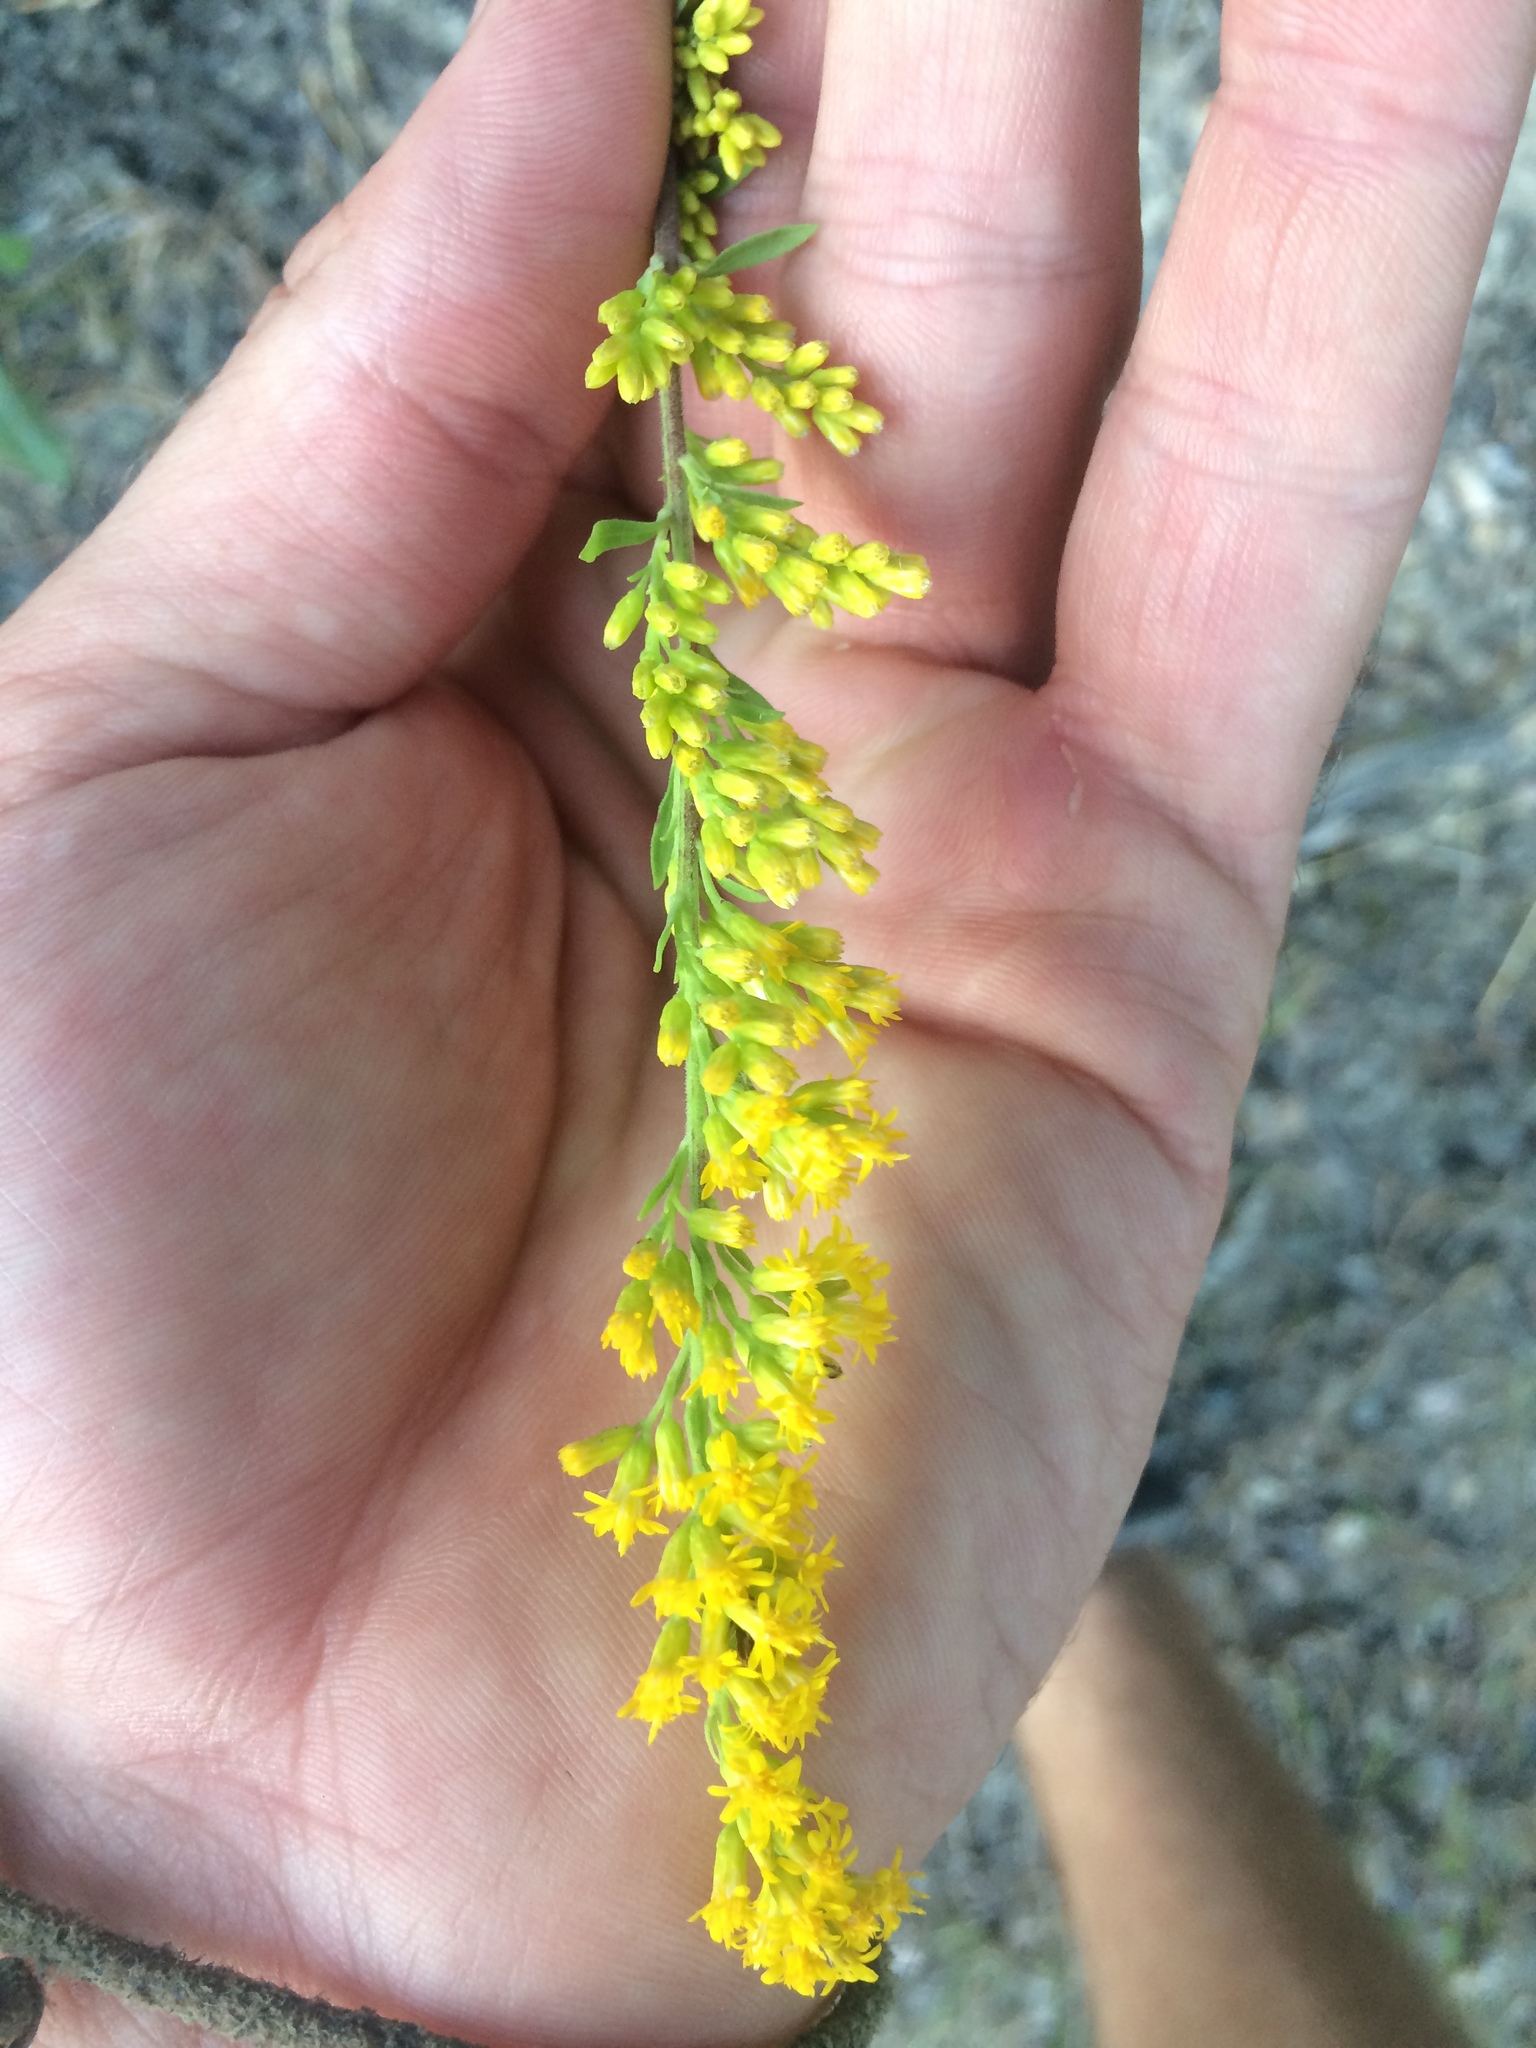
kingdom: Plantae
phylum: Tracheophyta
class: Magnoliopsida
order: Asterales
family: Asteraceae
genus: Solidago
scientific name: Solidago nemoralis
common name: Grey goldenrod
